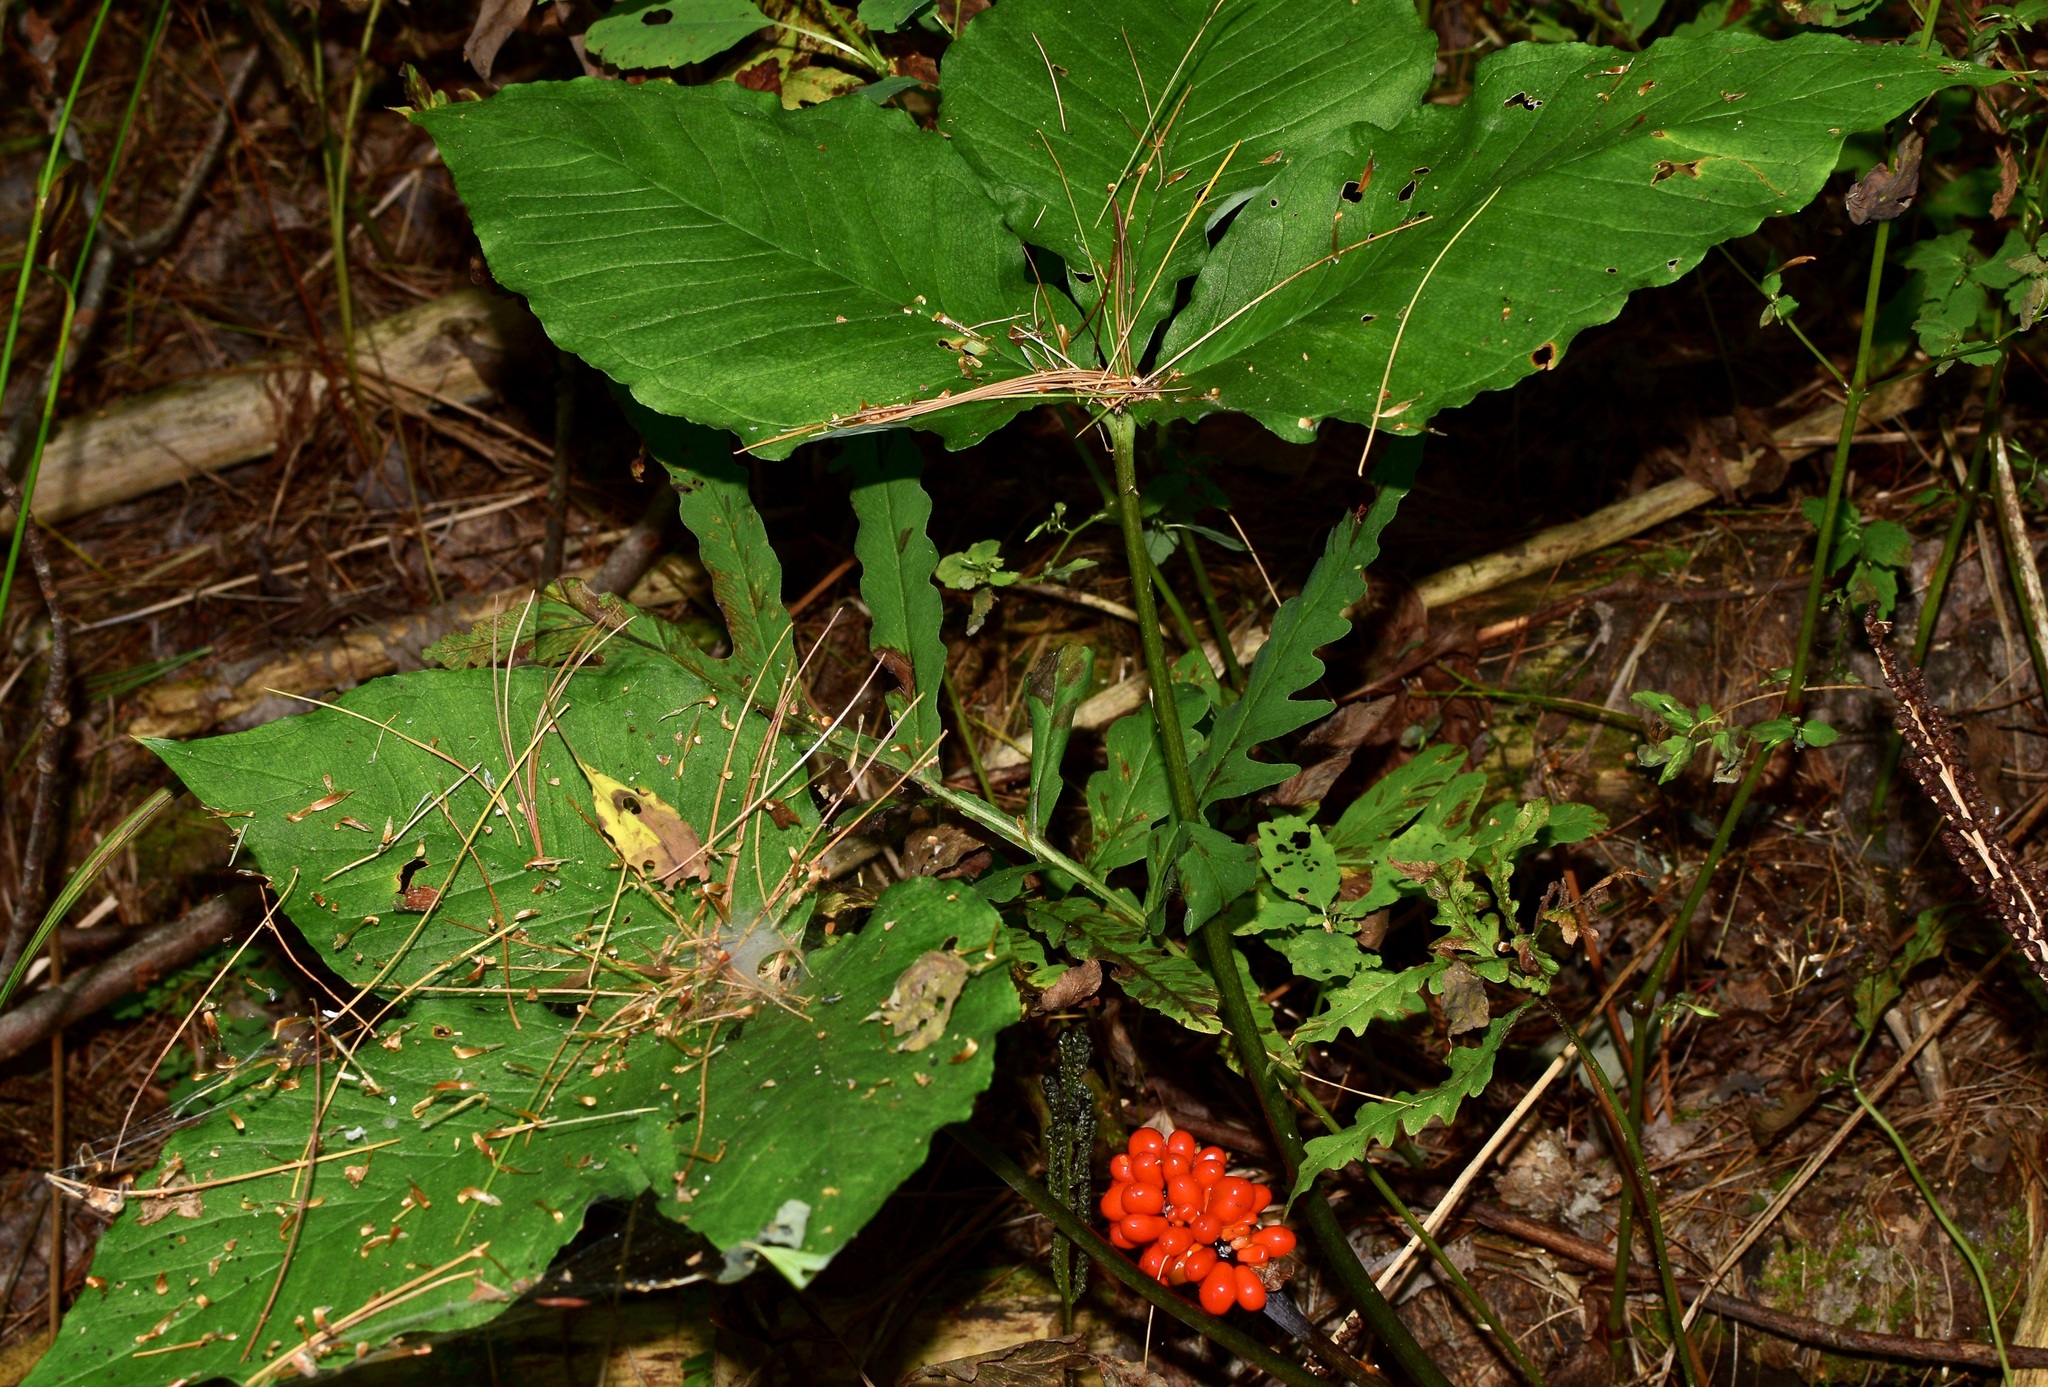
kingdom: Plantae
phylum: Tracheophyta
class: Liliopsida
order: Alismatales
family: Araceae
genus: Arisaema
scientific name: Arisaema triphyllum
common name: Jack-in-the-pulpit
